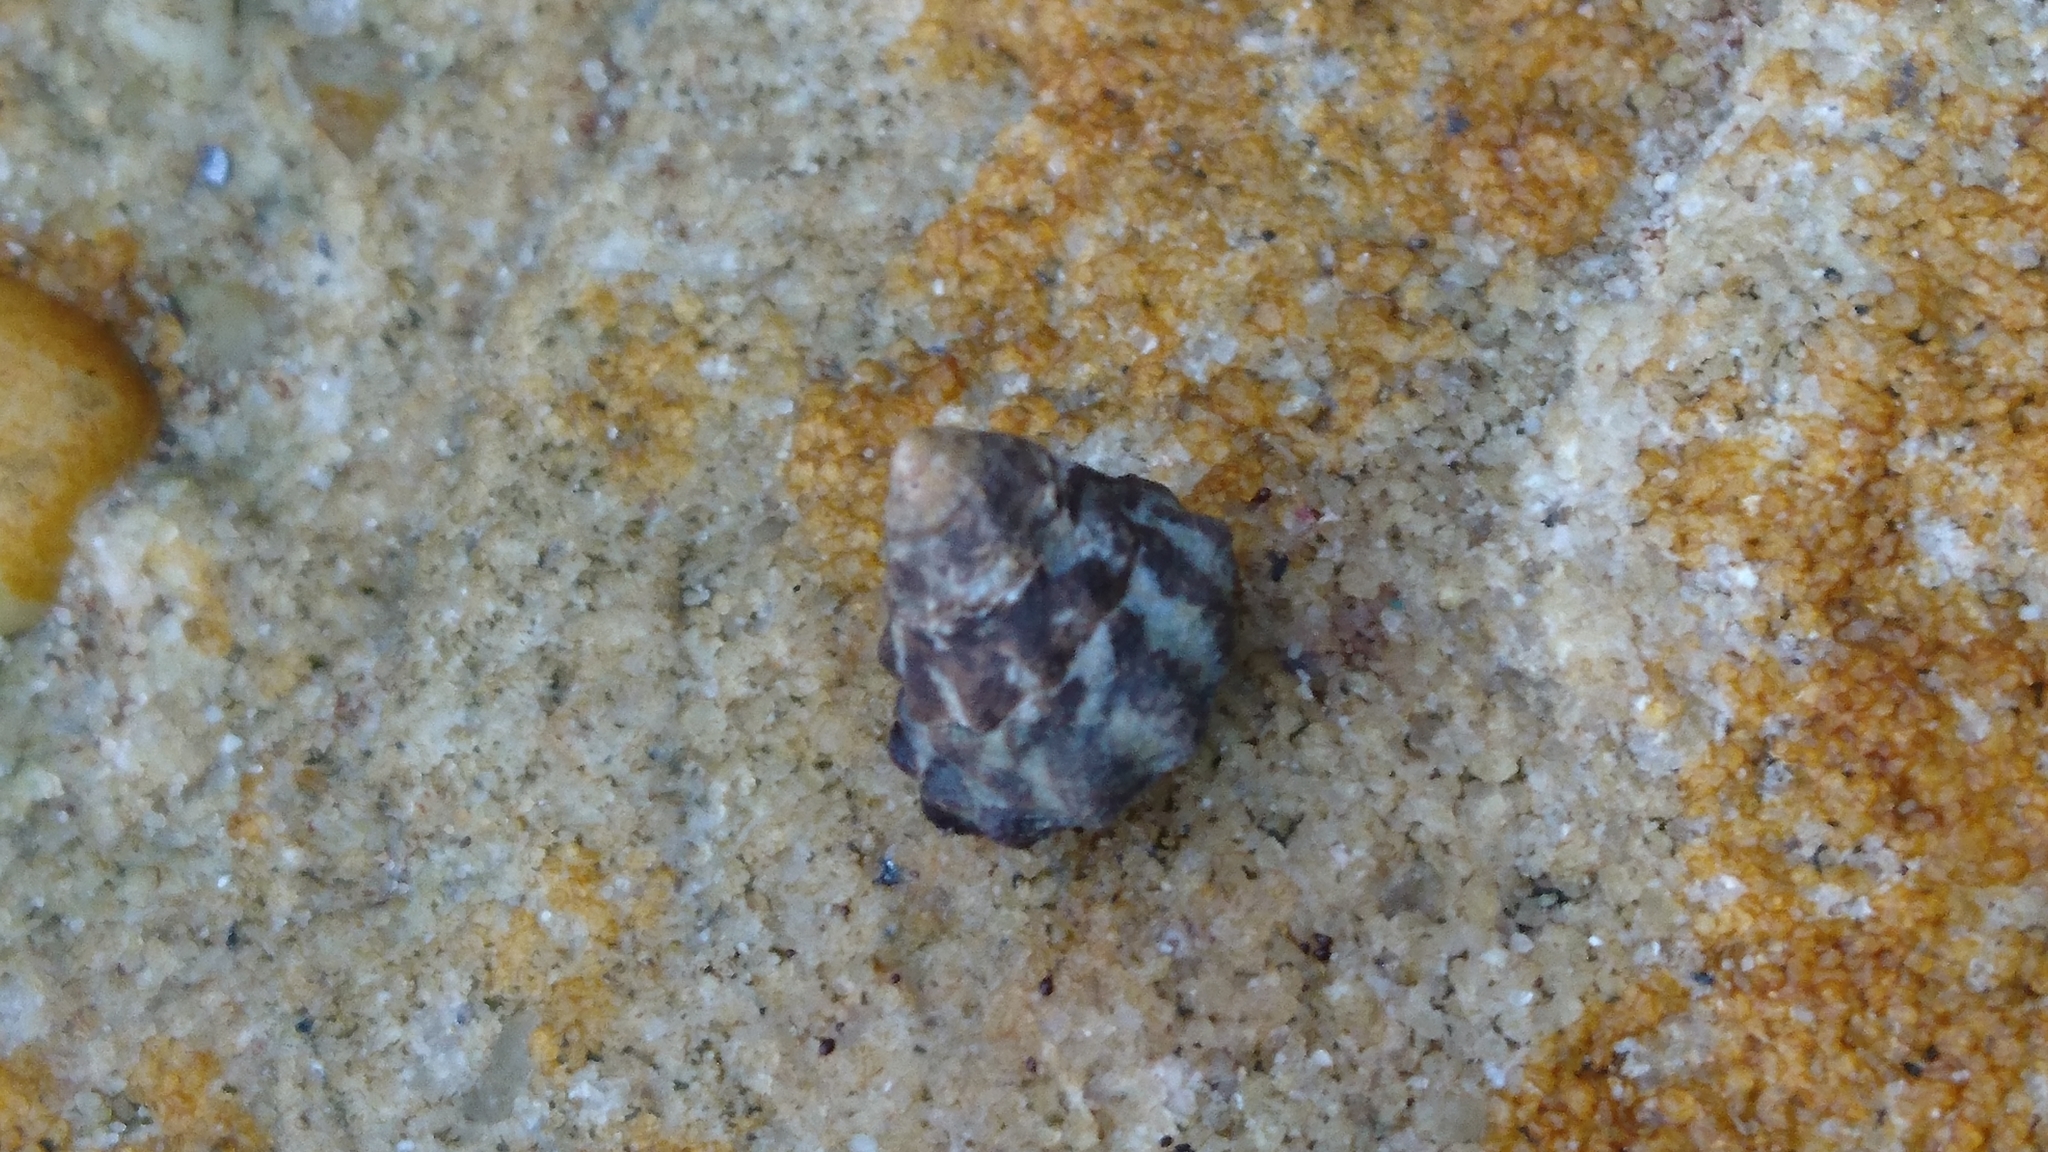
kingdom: Animalia
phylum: Mollusca
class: Gastropoda
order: Littorinimorpha
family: Littorinidae
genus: Bembicium
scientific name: Bembicium auratum
